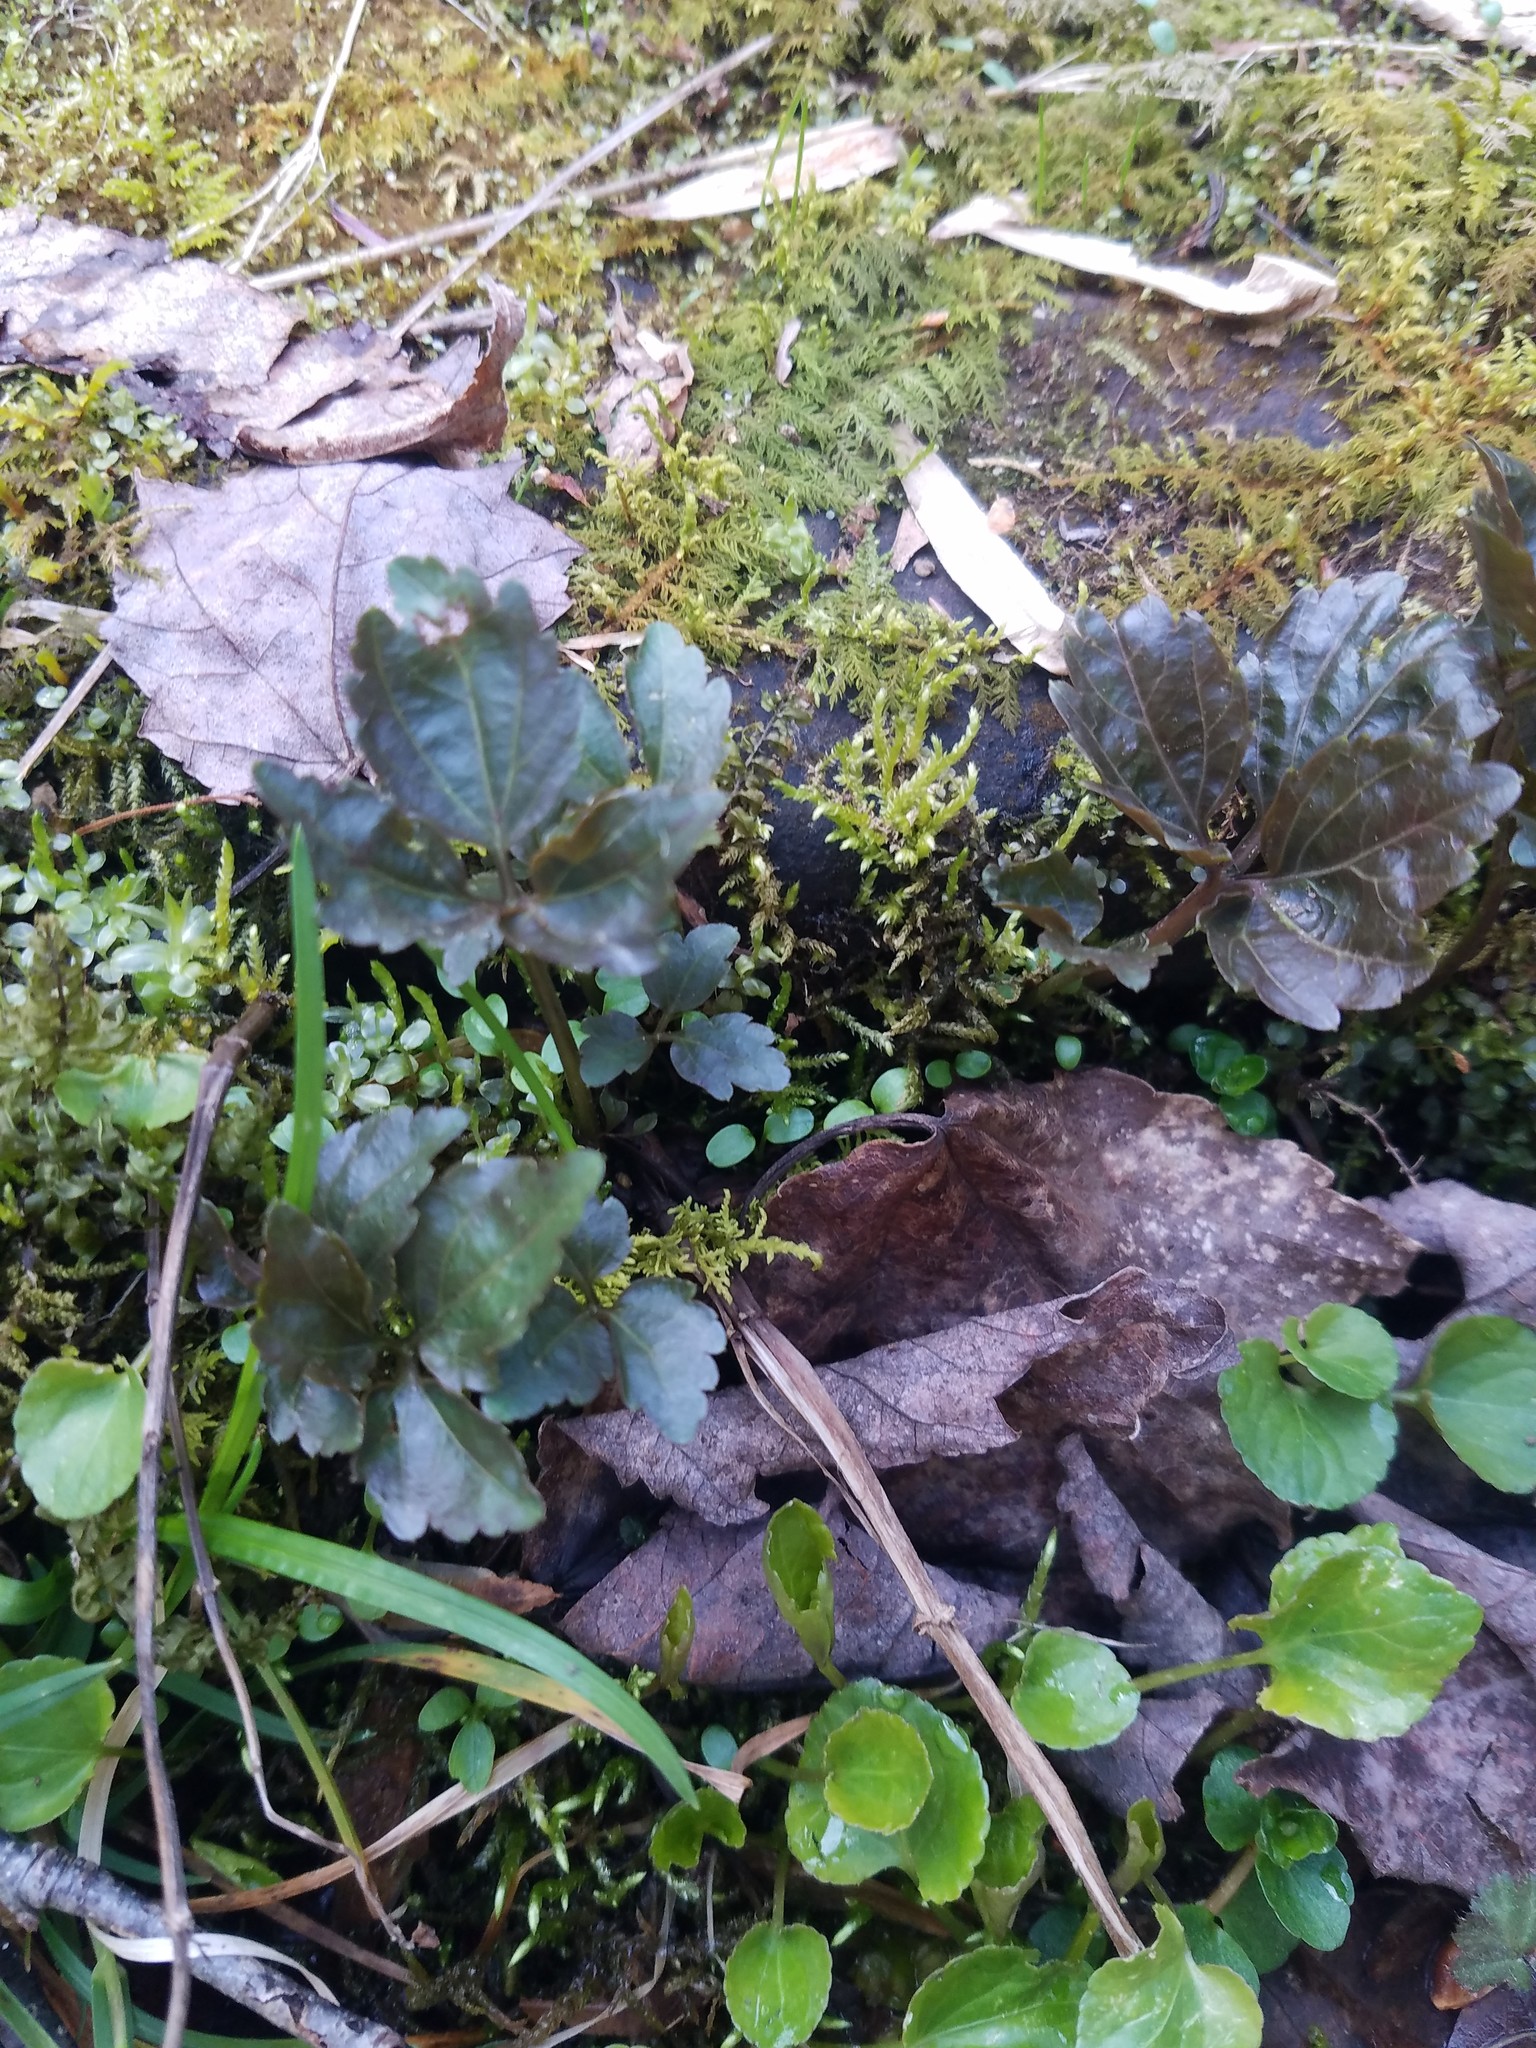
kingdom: Plantae
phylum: Tracheophyta
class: Magnoliopsida
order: Brassicales
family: Brassicaceae
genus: Cardamine
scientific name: Cardamine diphylla
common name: Broad-leaved toothwort
